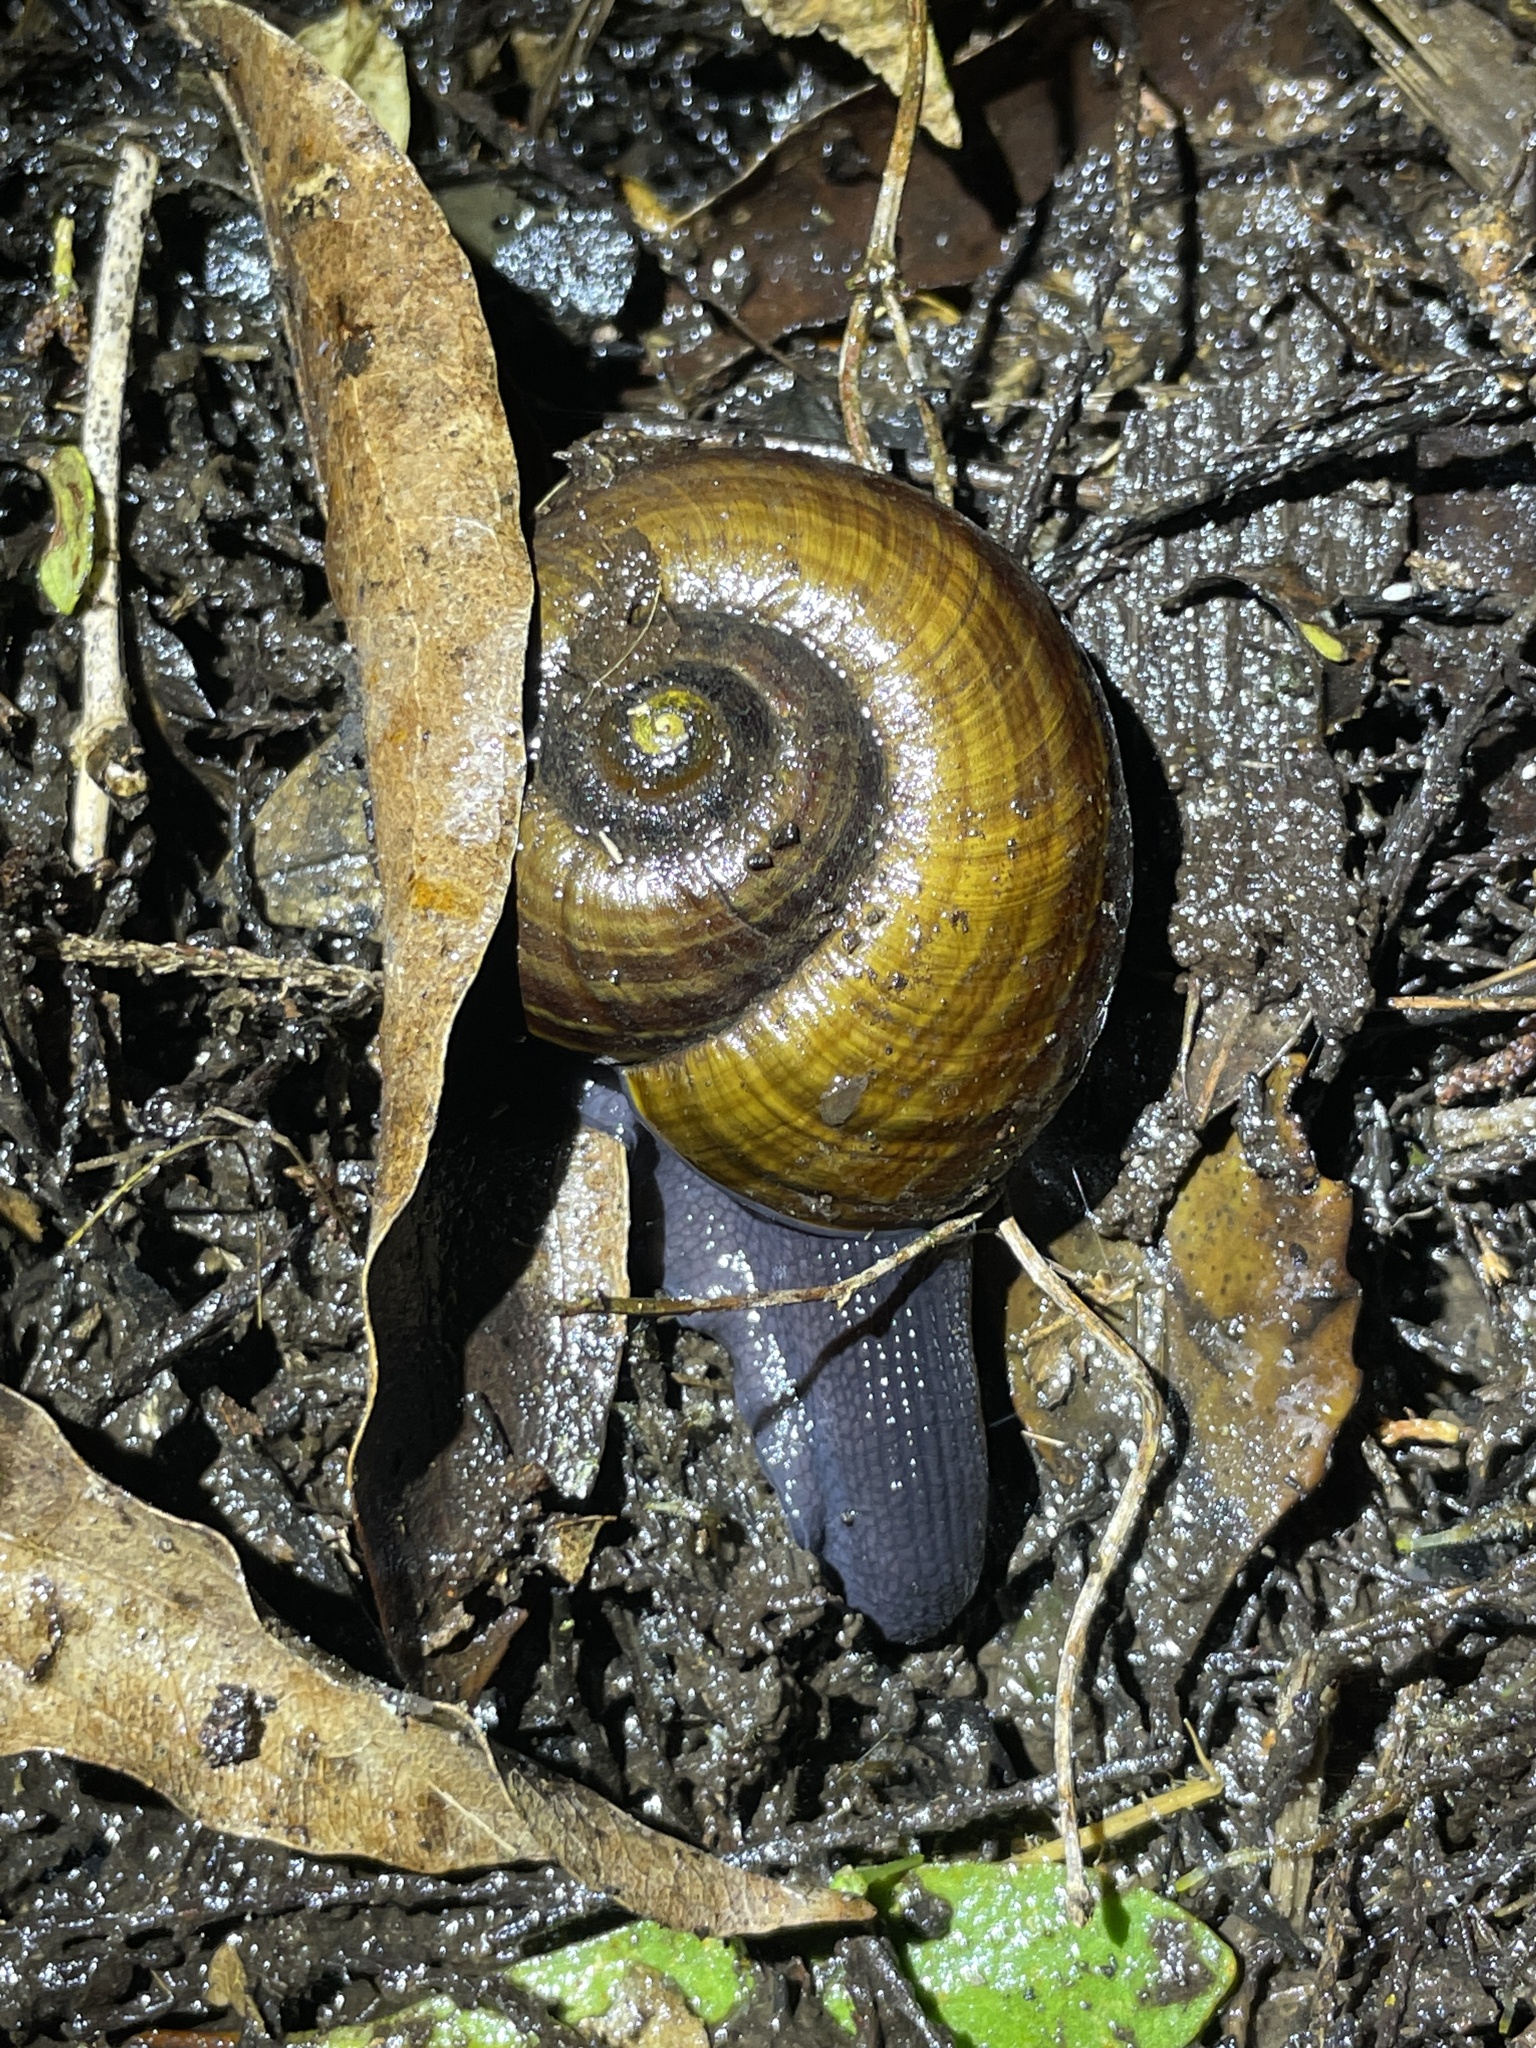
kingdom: Animalia
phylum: Mollusca
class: Gastropoda
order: Stylommatophora
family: Rhytididae
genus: Powelliphanta
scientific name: Powelliphanta traversi
